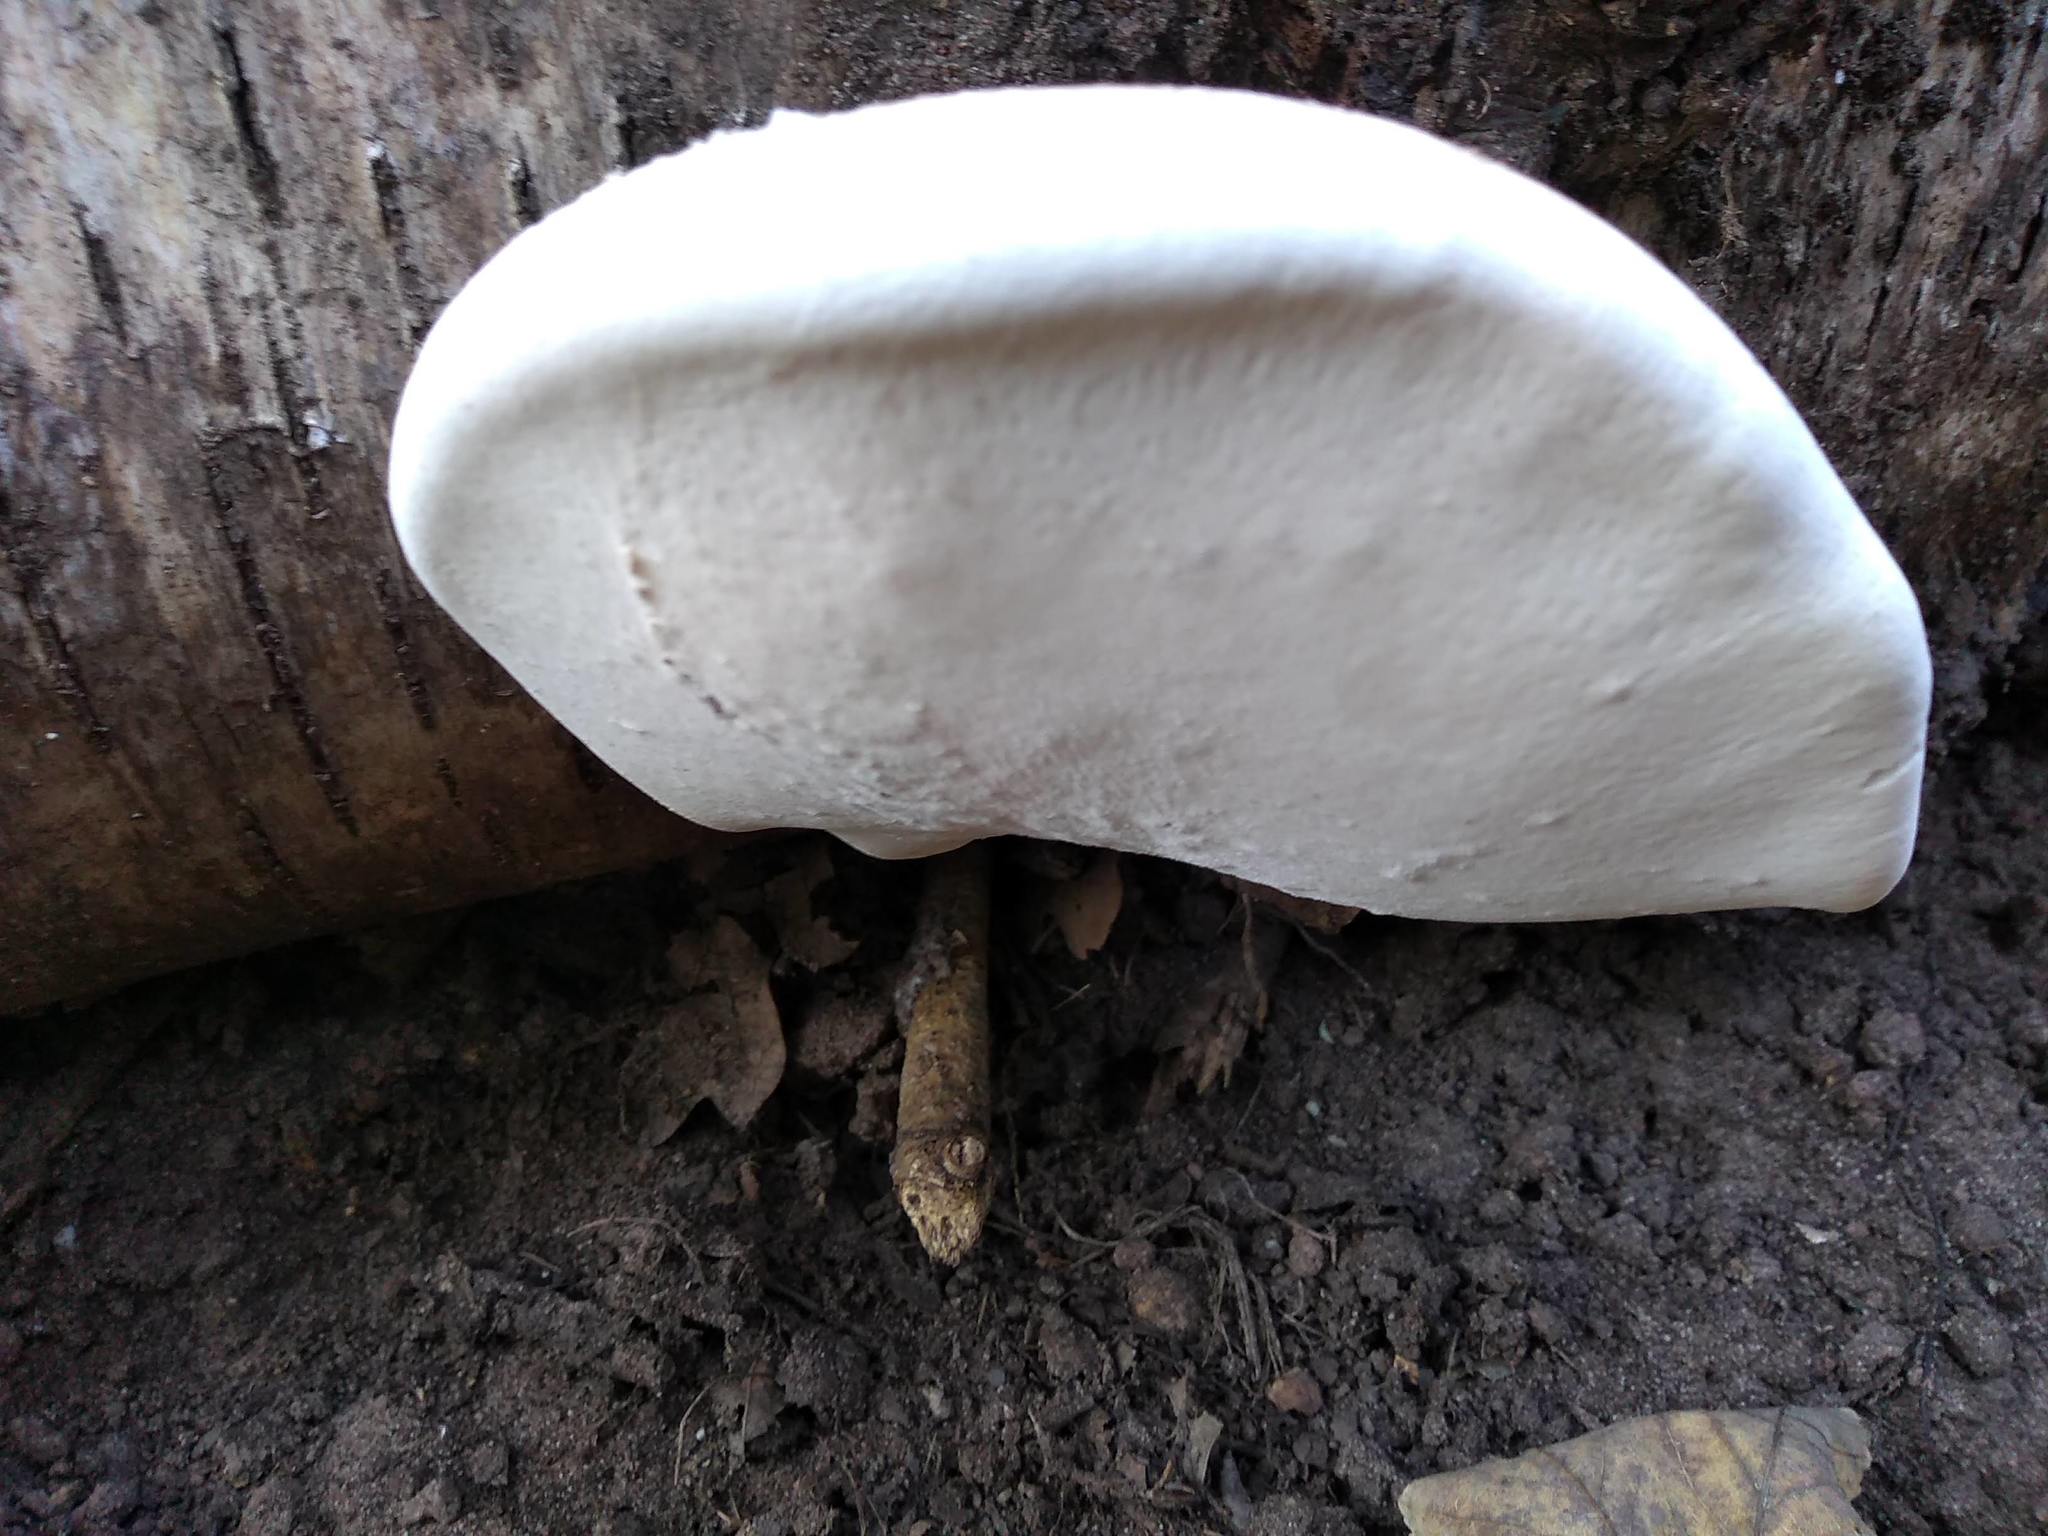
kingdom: Fungi
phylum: Basidiomycota
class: Agaricomycetes
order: Polyporales
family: Fomitopsidaceae
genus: Fomitopsis
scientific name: Fomitopsis betulina
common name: Birch polypore
